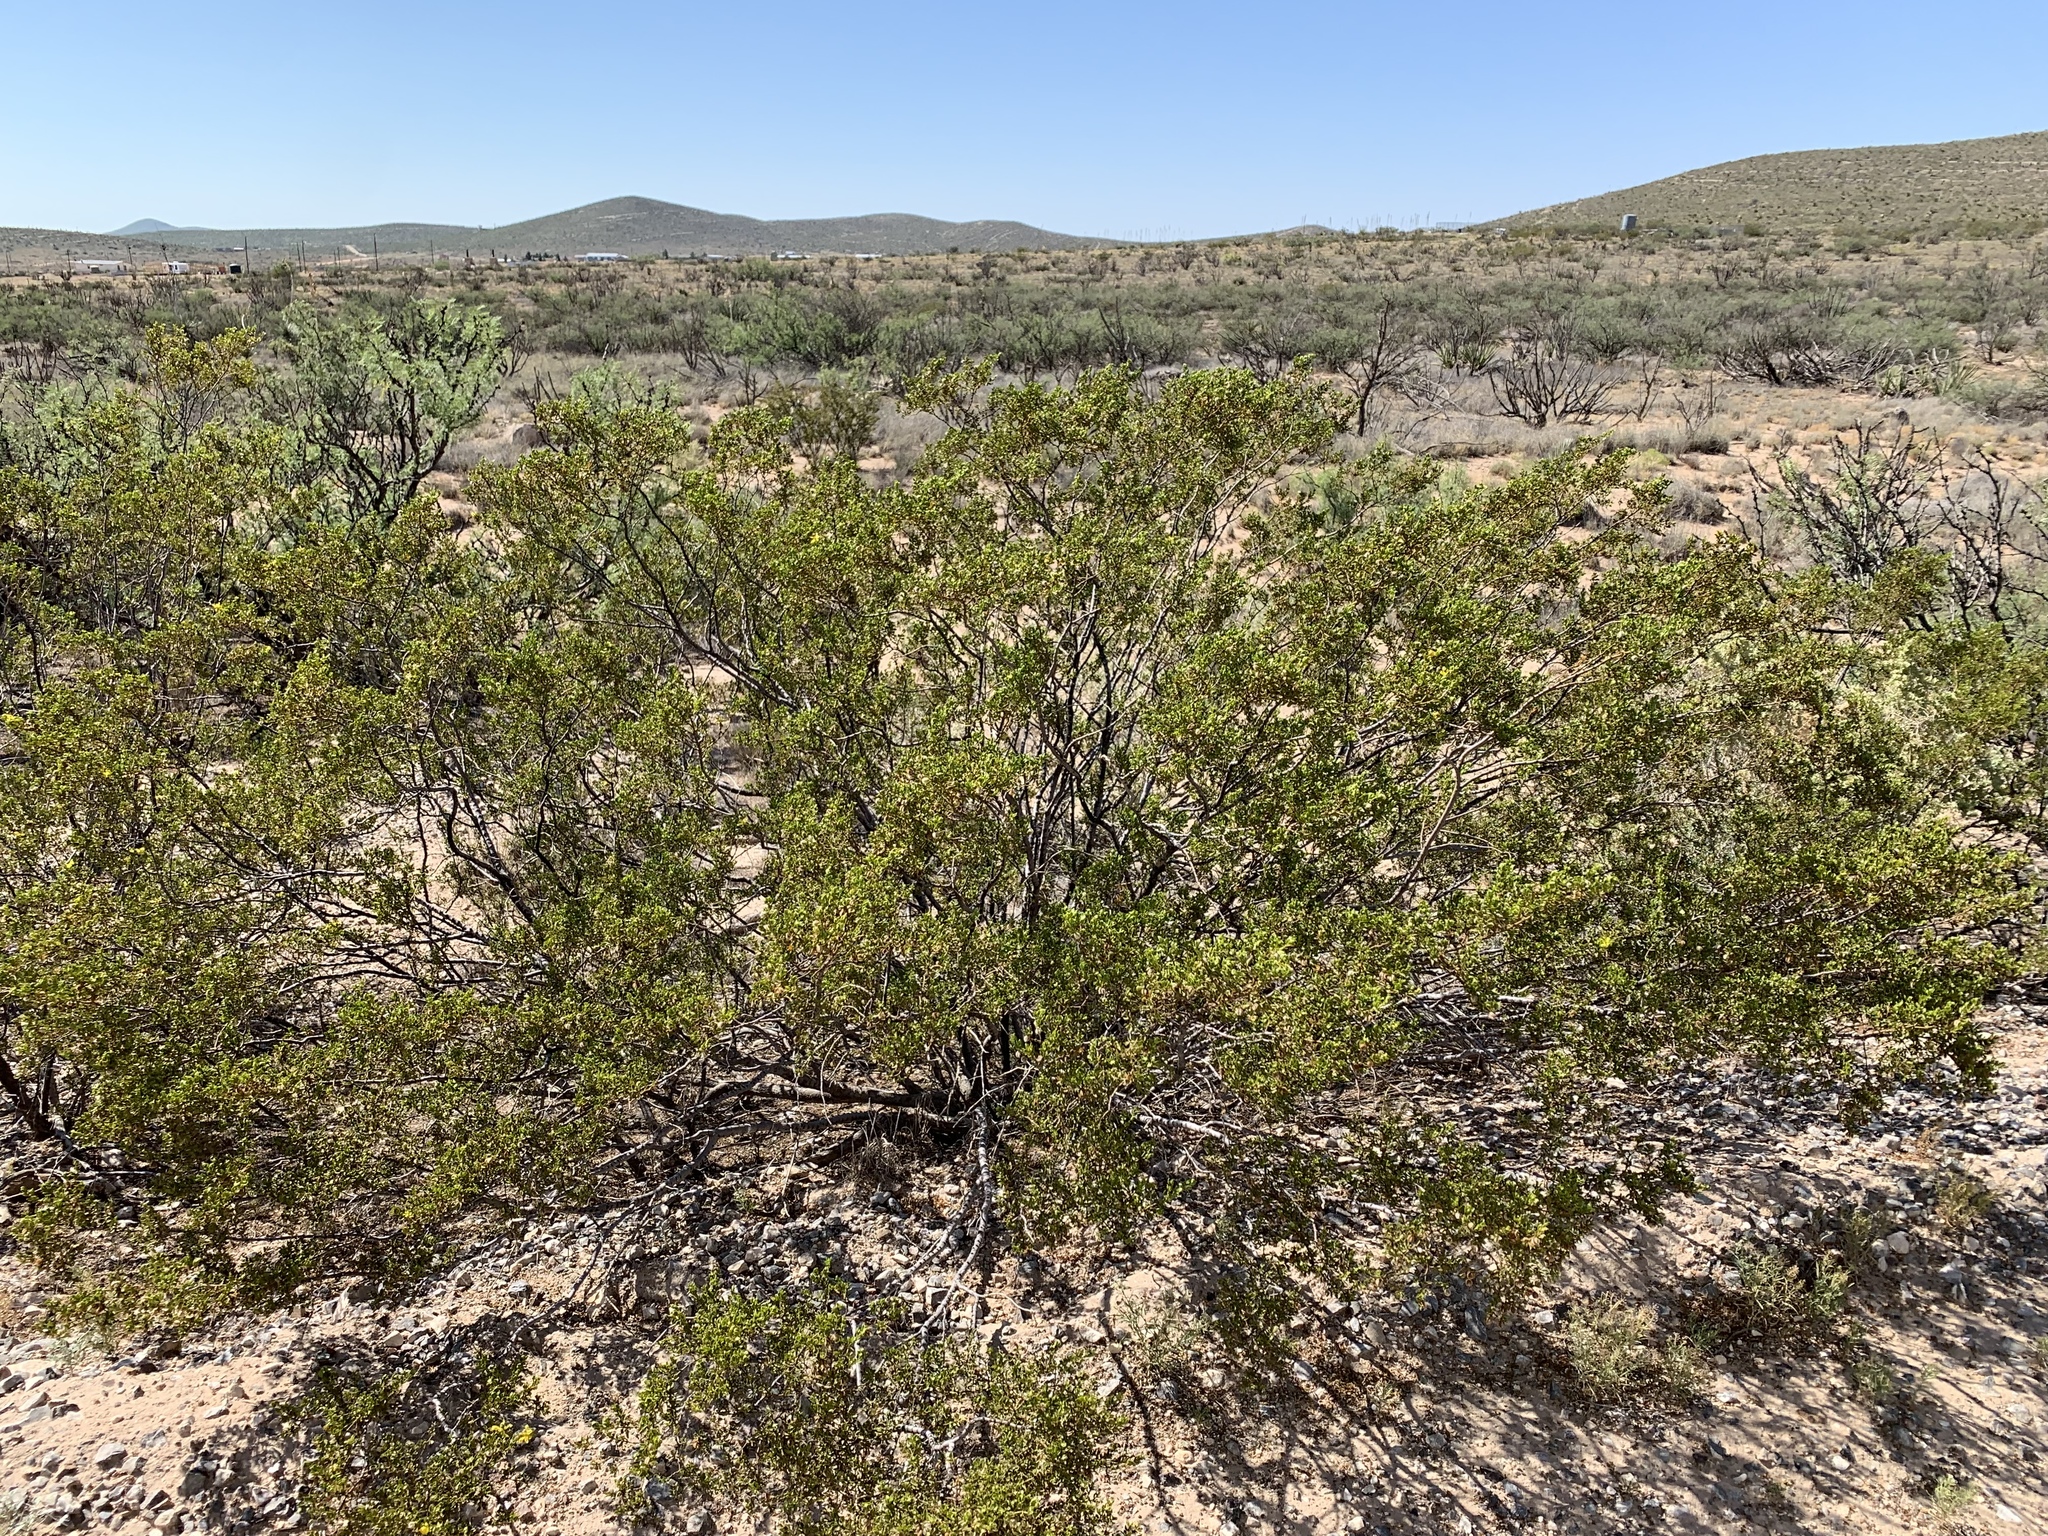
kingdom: Plantae
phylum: Tracheophyta
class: Magnoliopsida
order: Zygophyllales
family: Zygophyllaceae
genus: Larrea
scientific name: Larrea tridentata
